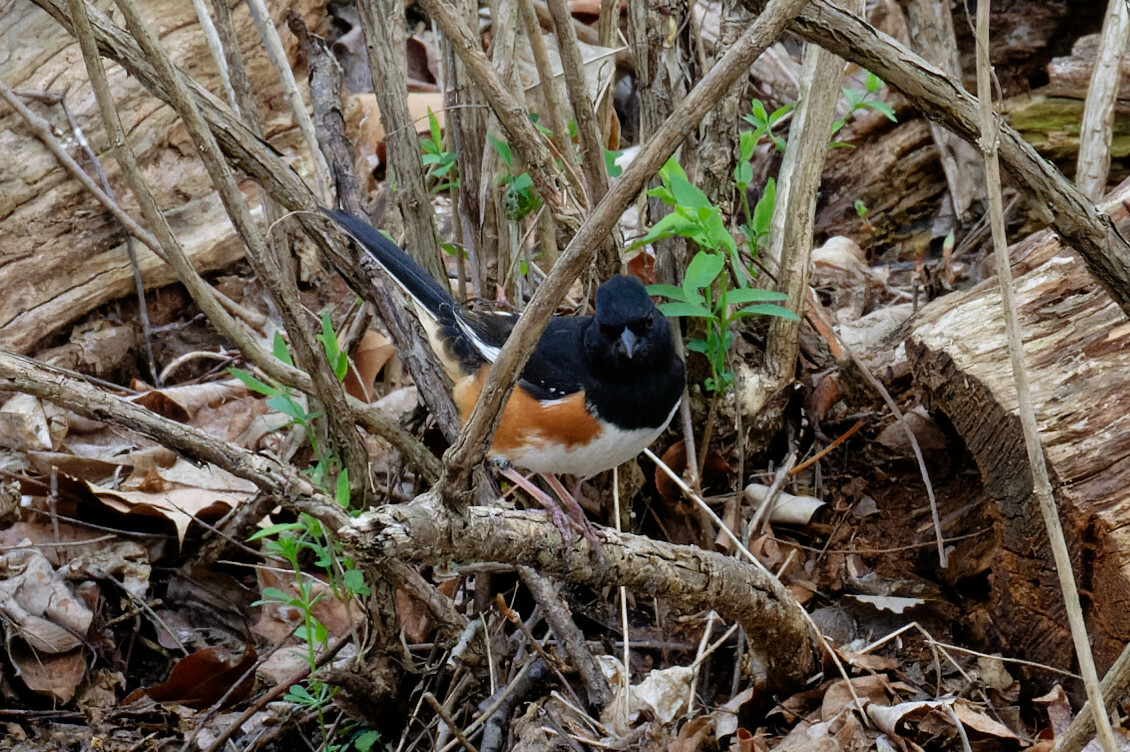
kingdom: Animalia
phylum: Chordata
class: Aves
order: Passeriformes
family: Passerellidae
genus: Pipilo
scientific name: Pipilo erythrophthalmus
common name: Eastern towhee
